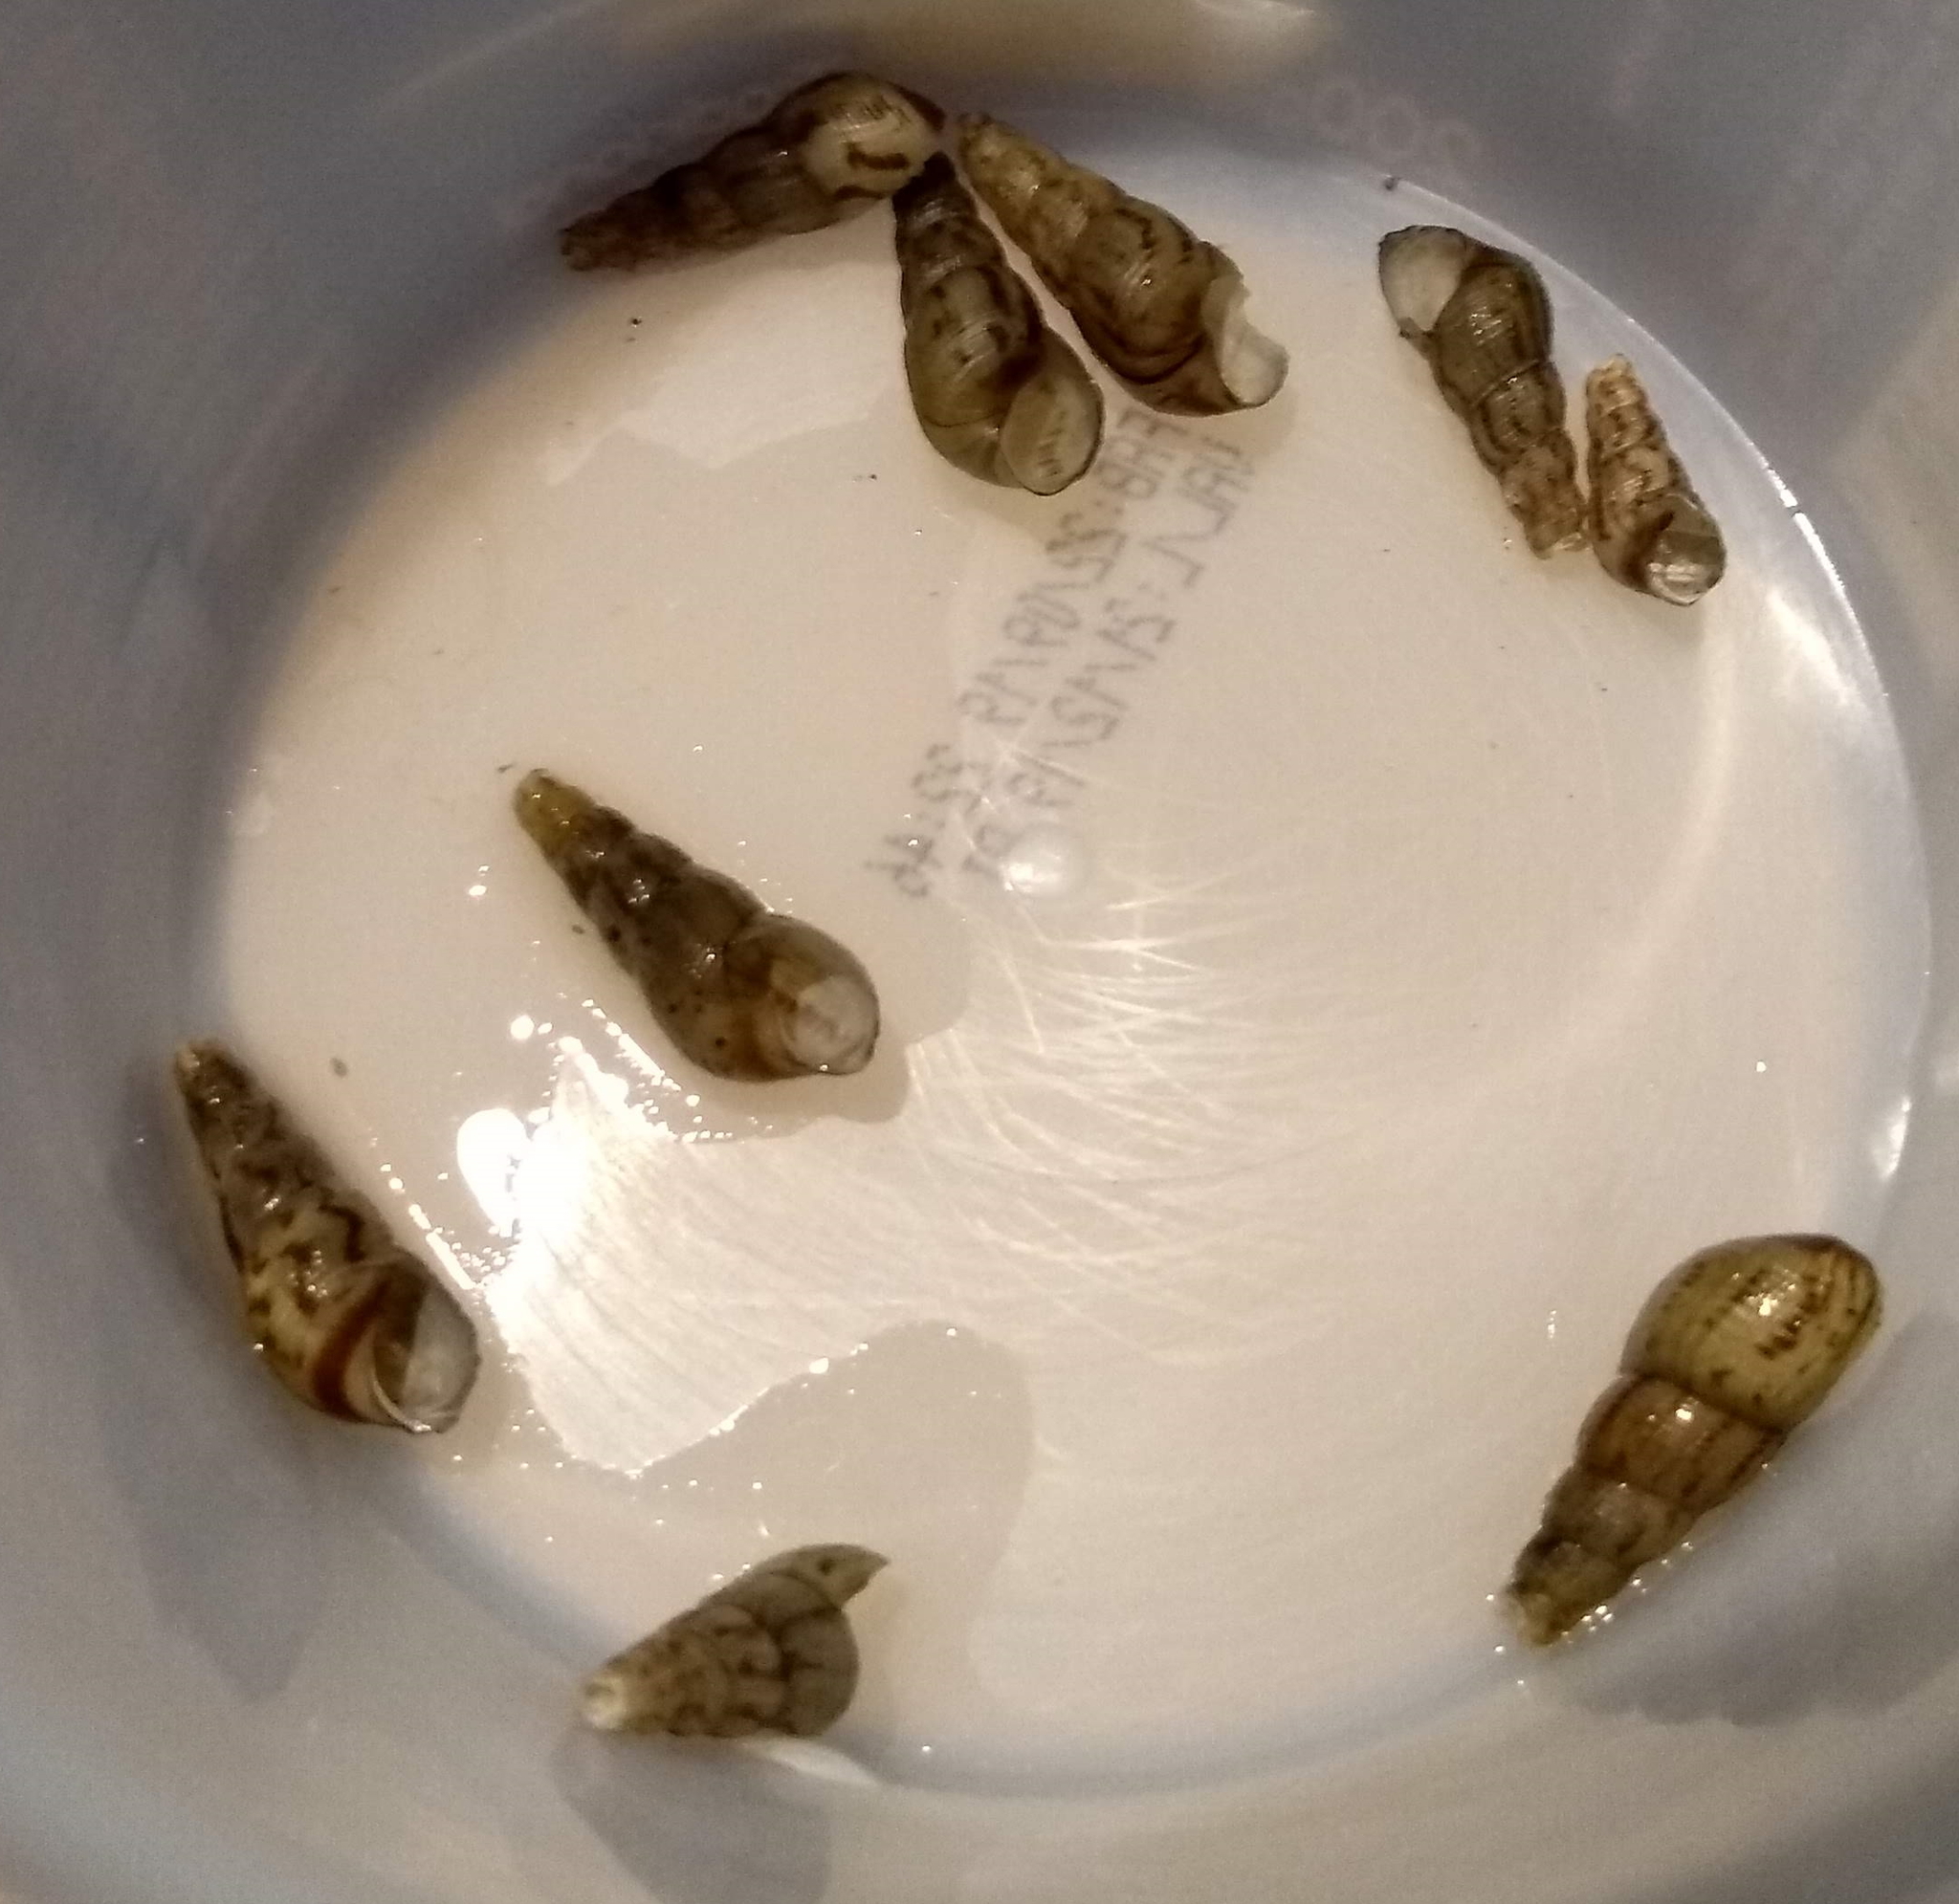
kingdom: Animalia
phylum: Mollusca
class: Gastropoda
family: Thiaridae
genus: Melanoides
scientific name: Melanoides tuberculata
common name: Red-rim melania
